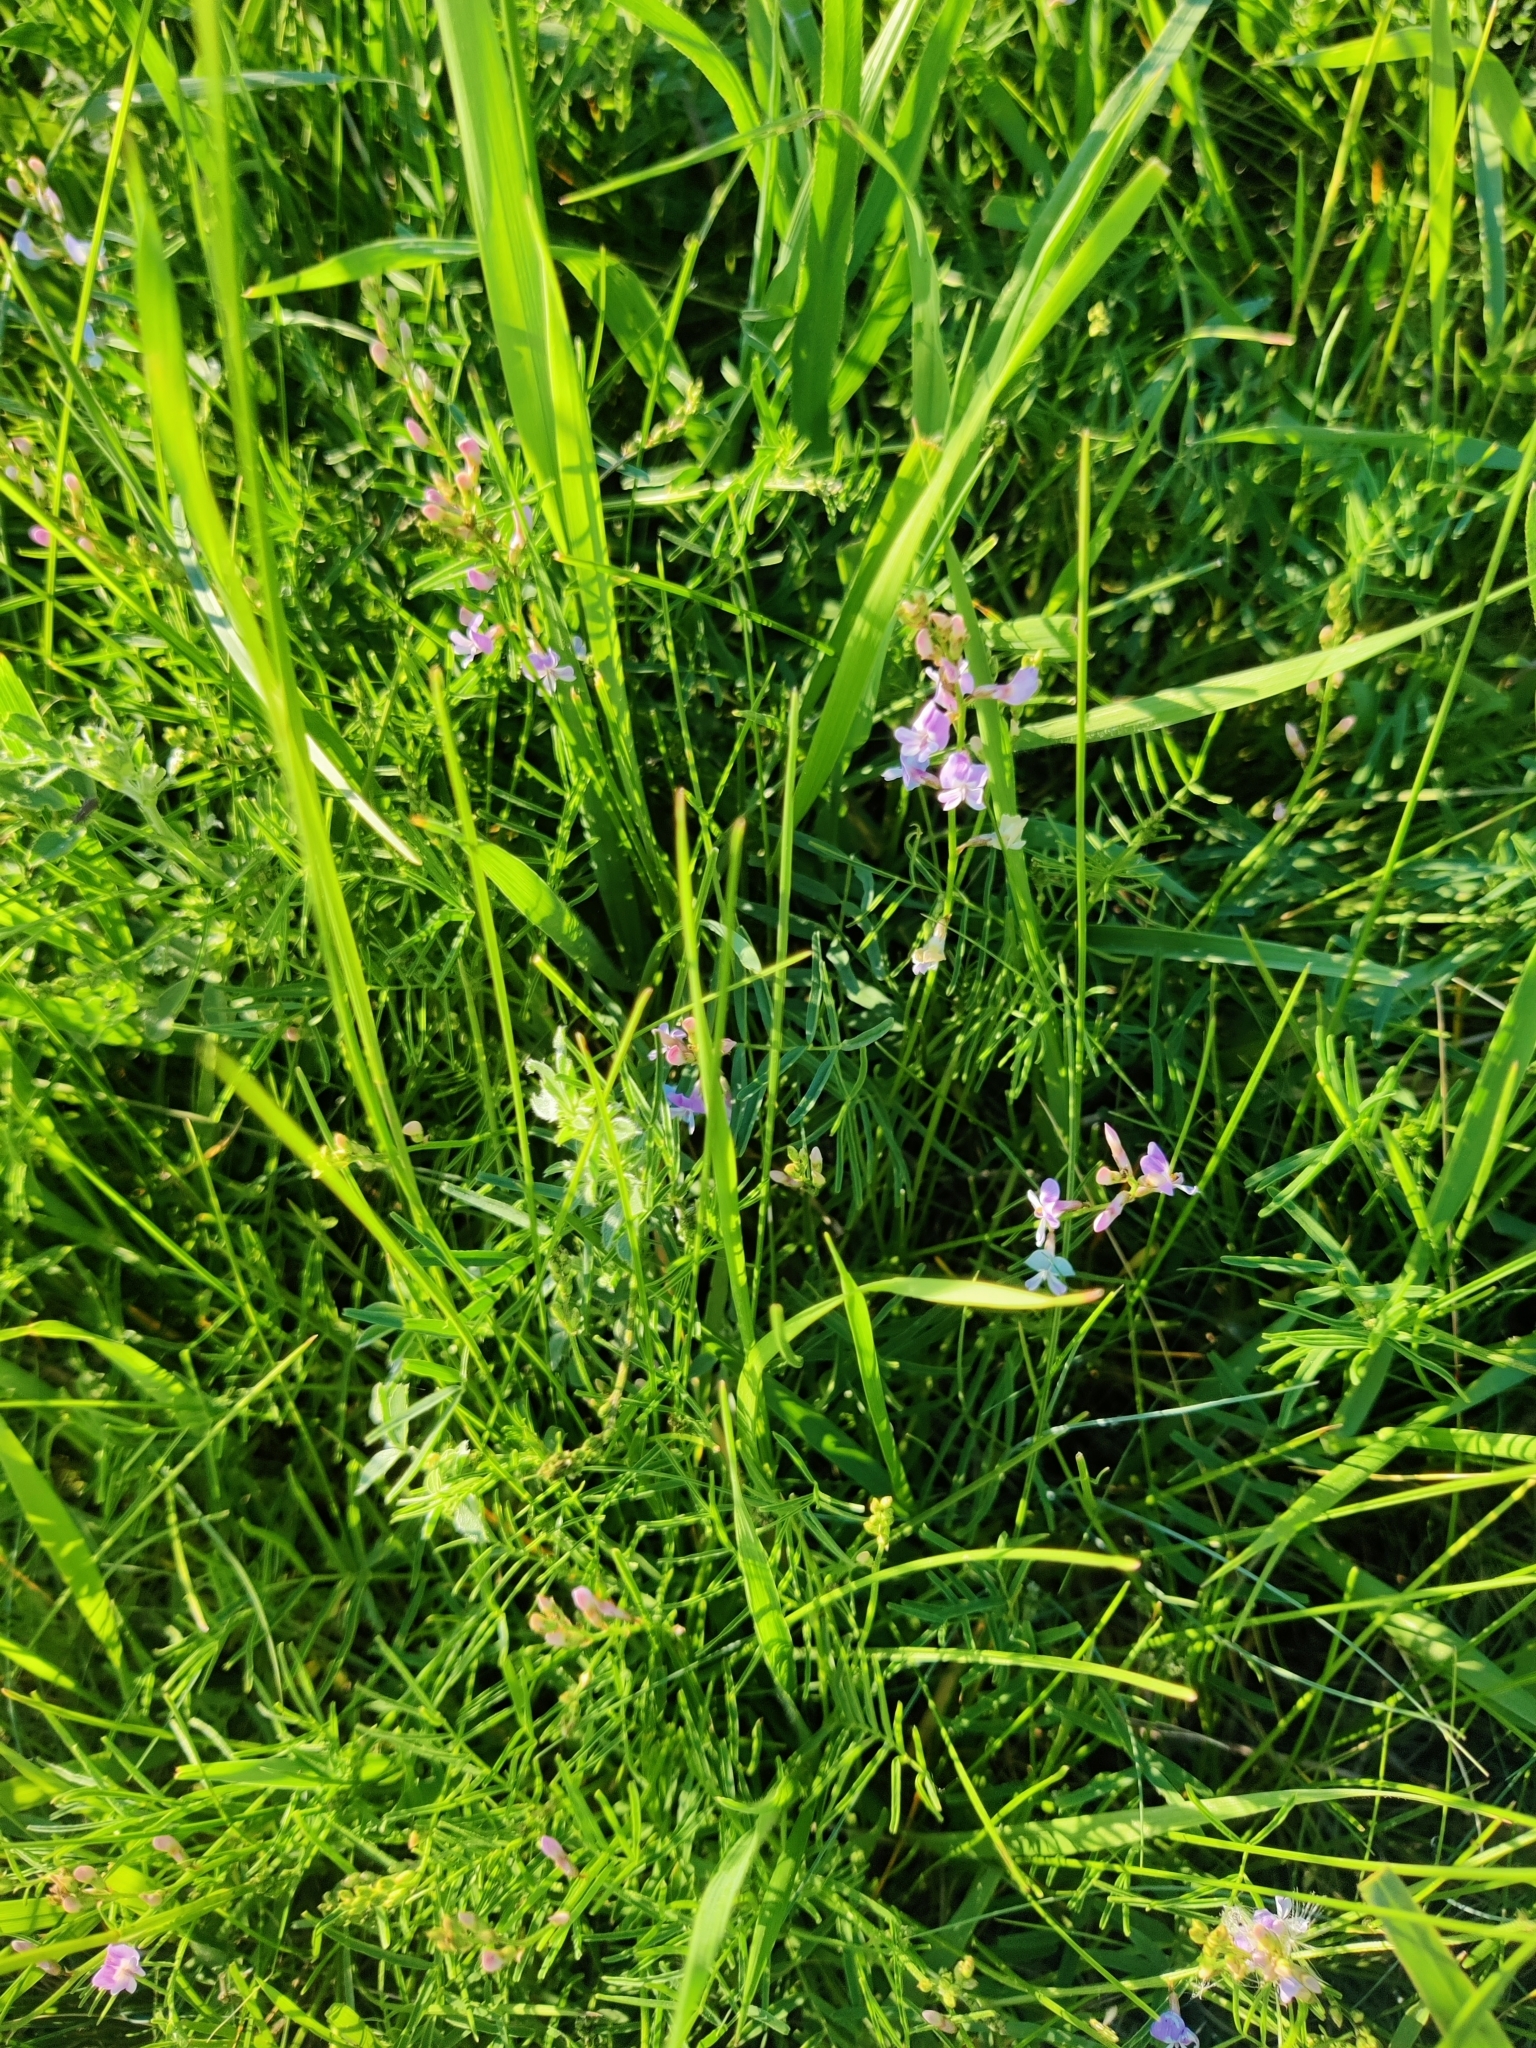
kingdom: Plantae
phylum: Tracheophyta
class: Magnoliopsida
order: Fabales
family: Fabaceae
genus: Astragalus
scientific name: Astragalus austriacus
